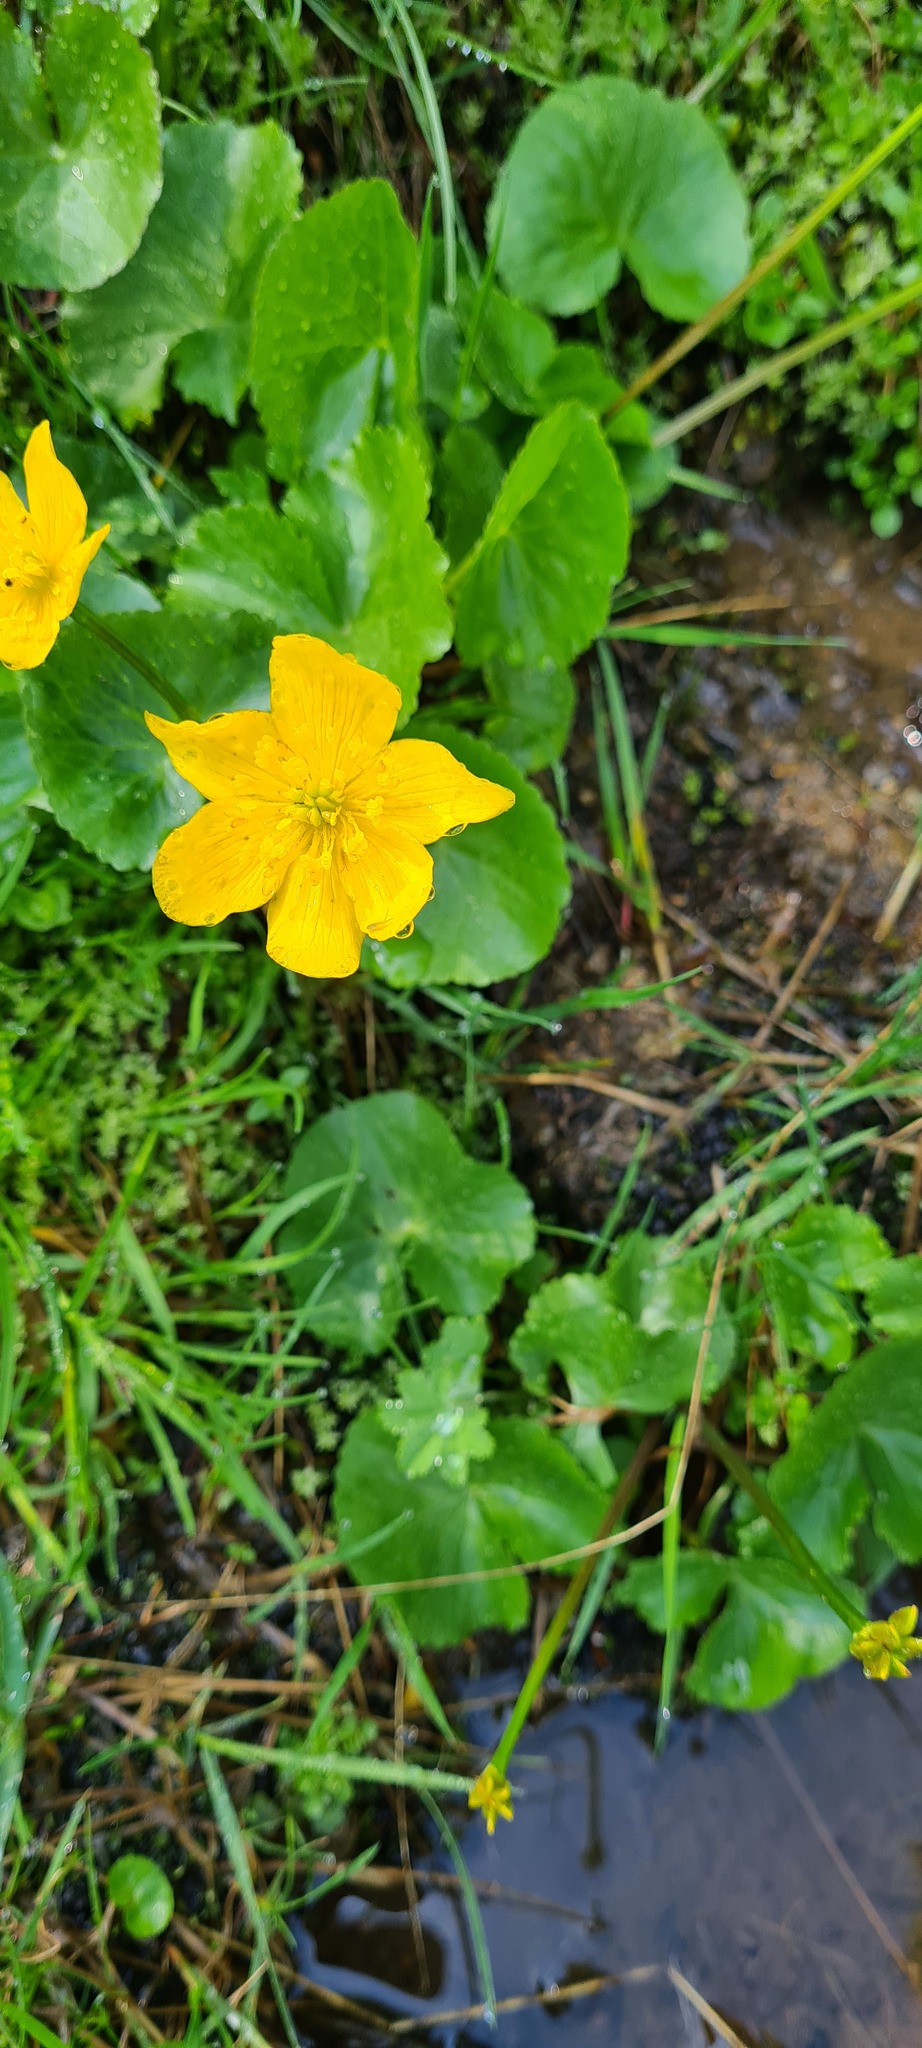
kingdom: Plantae
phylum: Tracheophyta
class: Magnoliopsida
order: Ranunculales
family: Ranunculaceae
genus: Caltha
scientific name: Caltha palustris
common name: Marsh marigold
